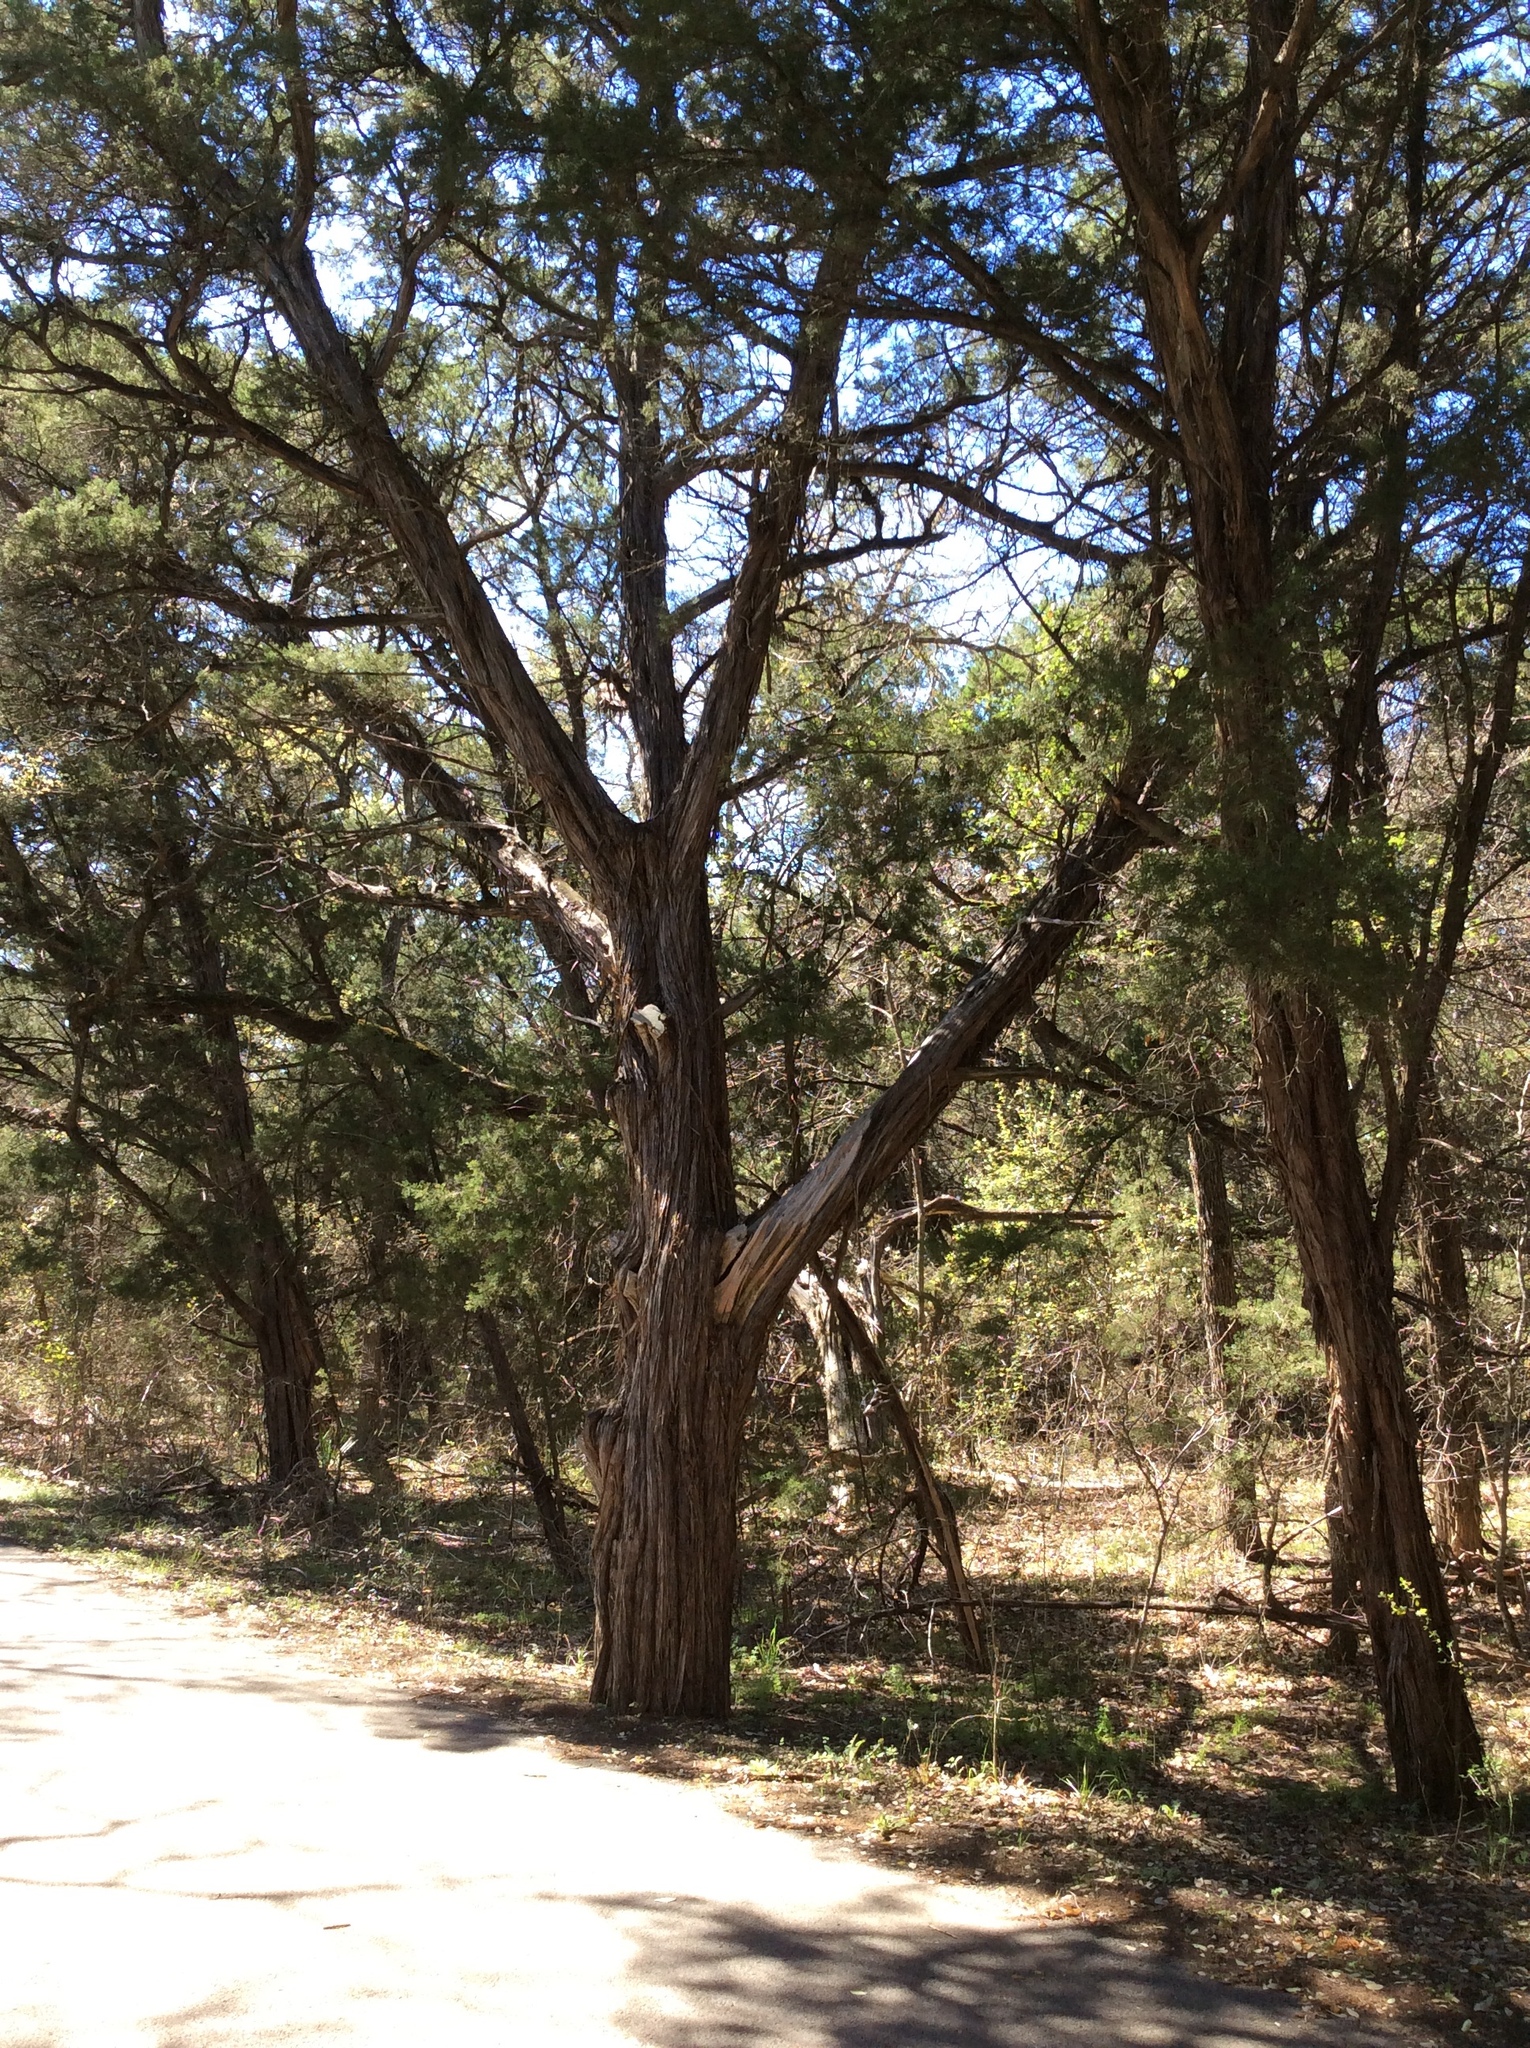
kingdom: Plantae
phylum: Tracheophyta
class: Pinopsida
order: Pinales
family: Cupressaceae
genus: Juniperus
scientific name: Juniperus ashei
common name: Mexican juniper
